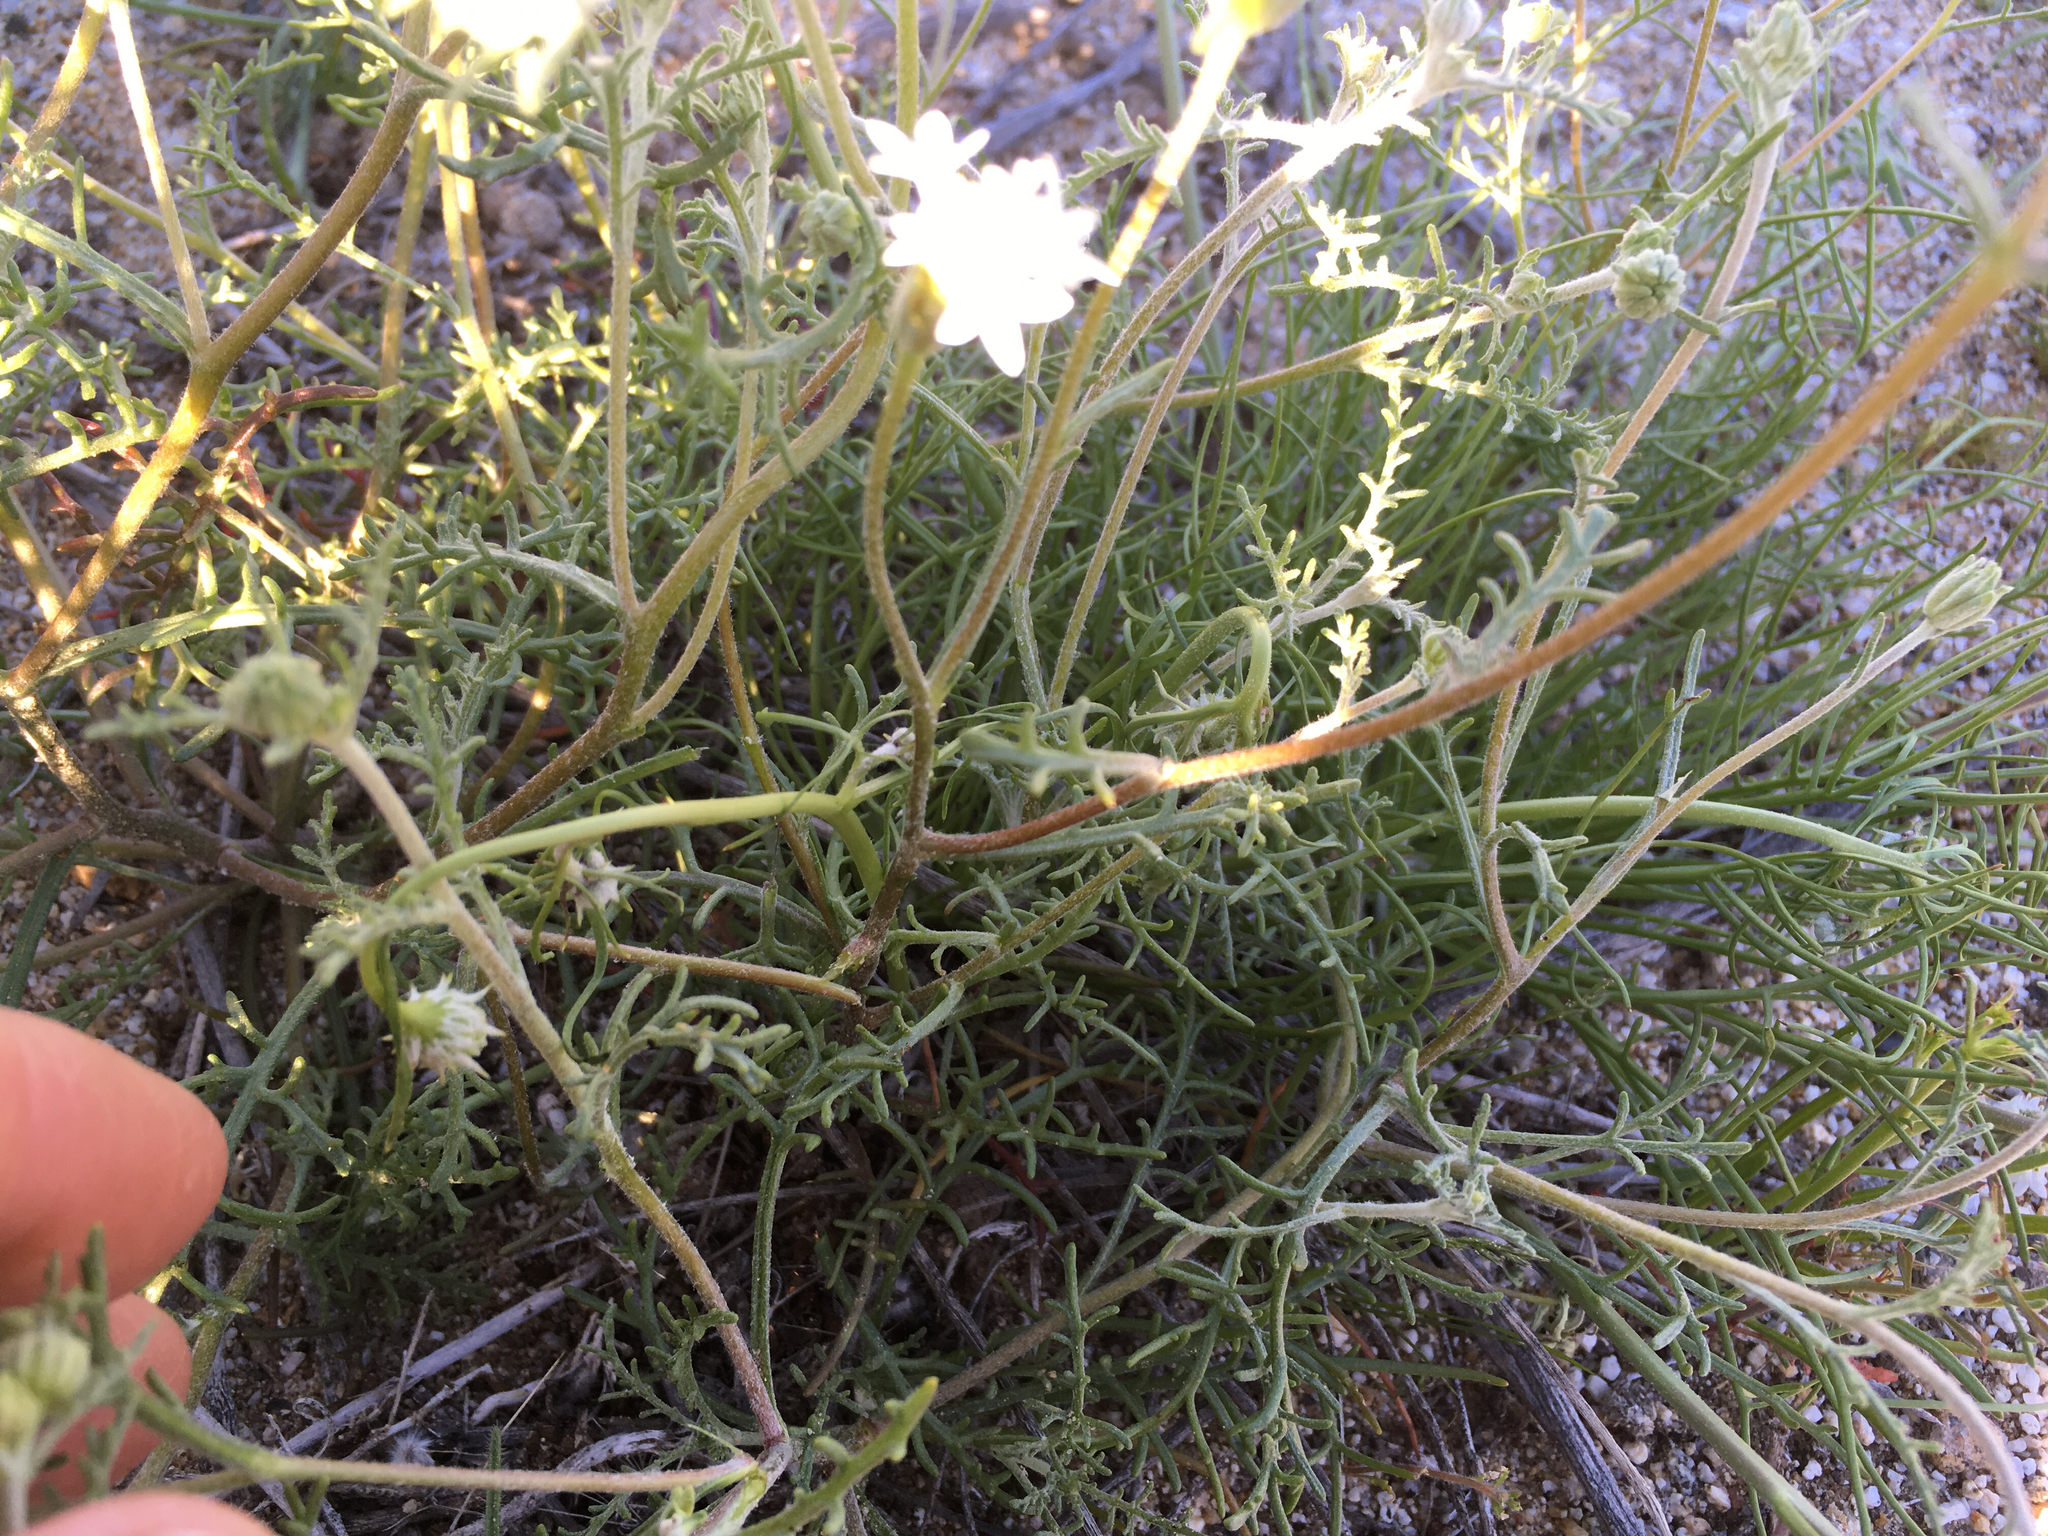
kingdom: Plantae
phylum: Tracheophyta
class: Magnoliopsida
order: Asterales
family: Asteraceae
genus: Chaenactis
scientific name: Chaenactis stevioides
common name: Desert pincushion
